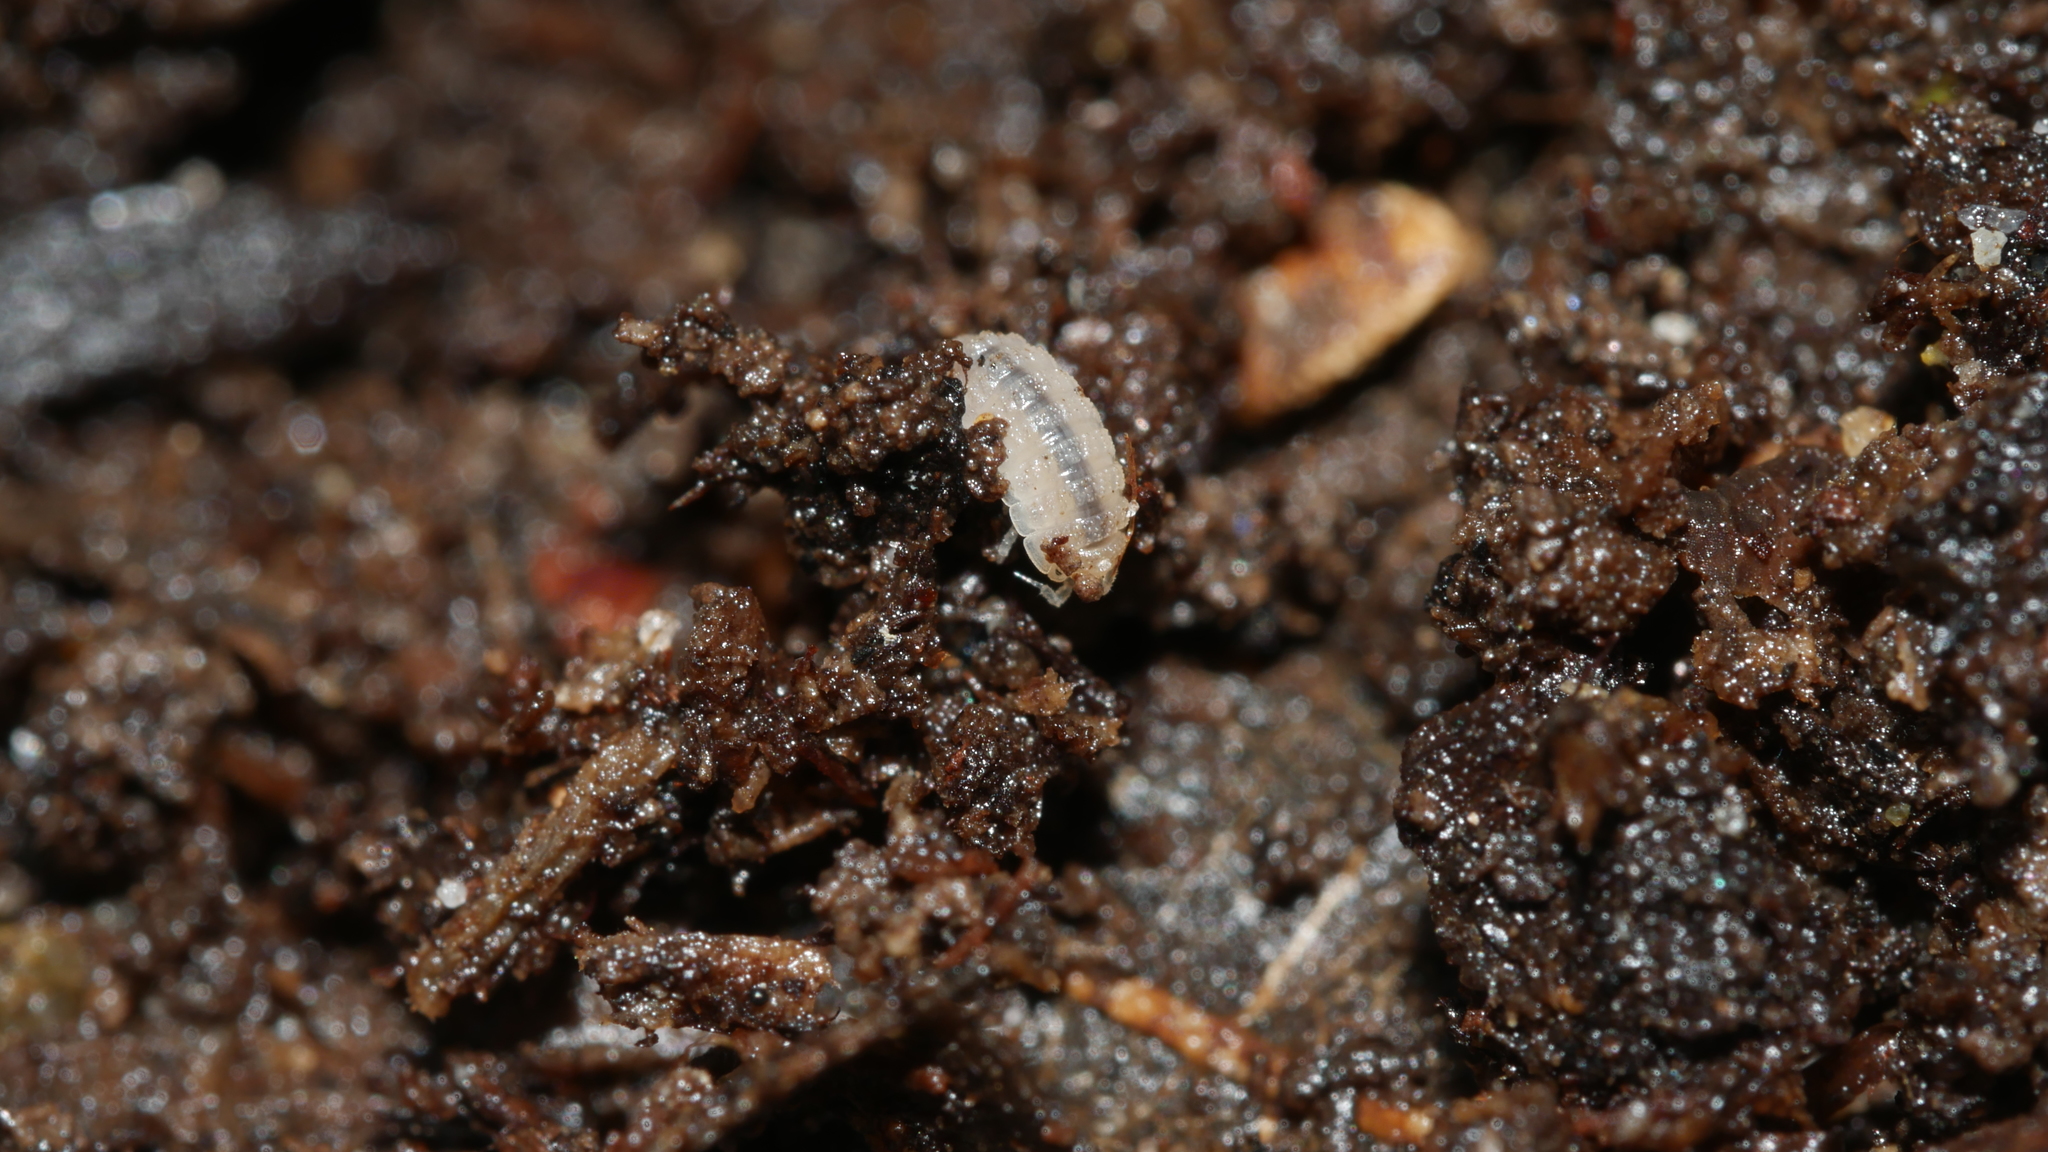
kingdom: Animalia
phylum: Arthropoda
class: Malacostraca
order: Isopoda
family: Trichoniscidae
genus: Haplophthalmus
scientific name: Haplophthalmus danicus
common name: Pillbug
